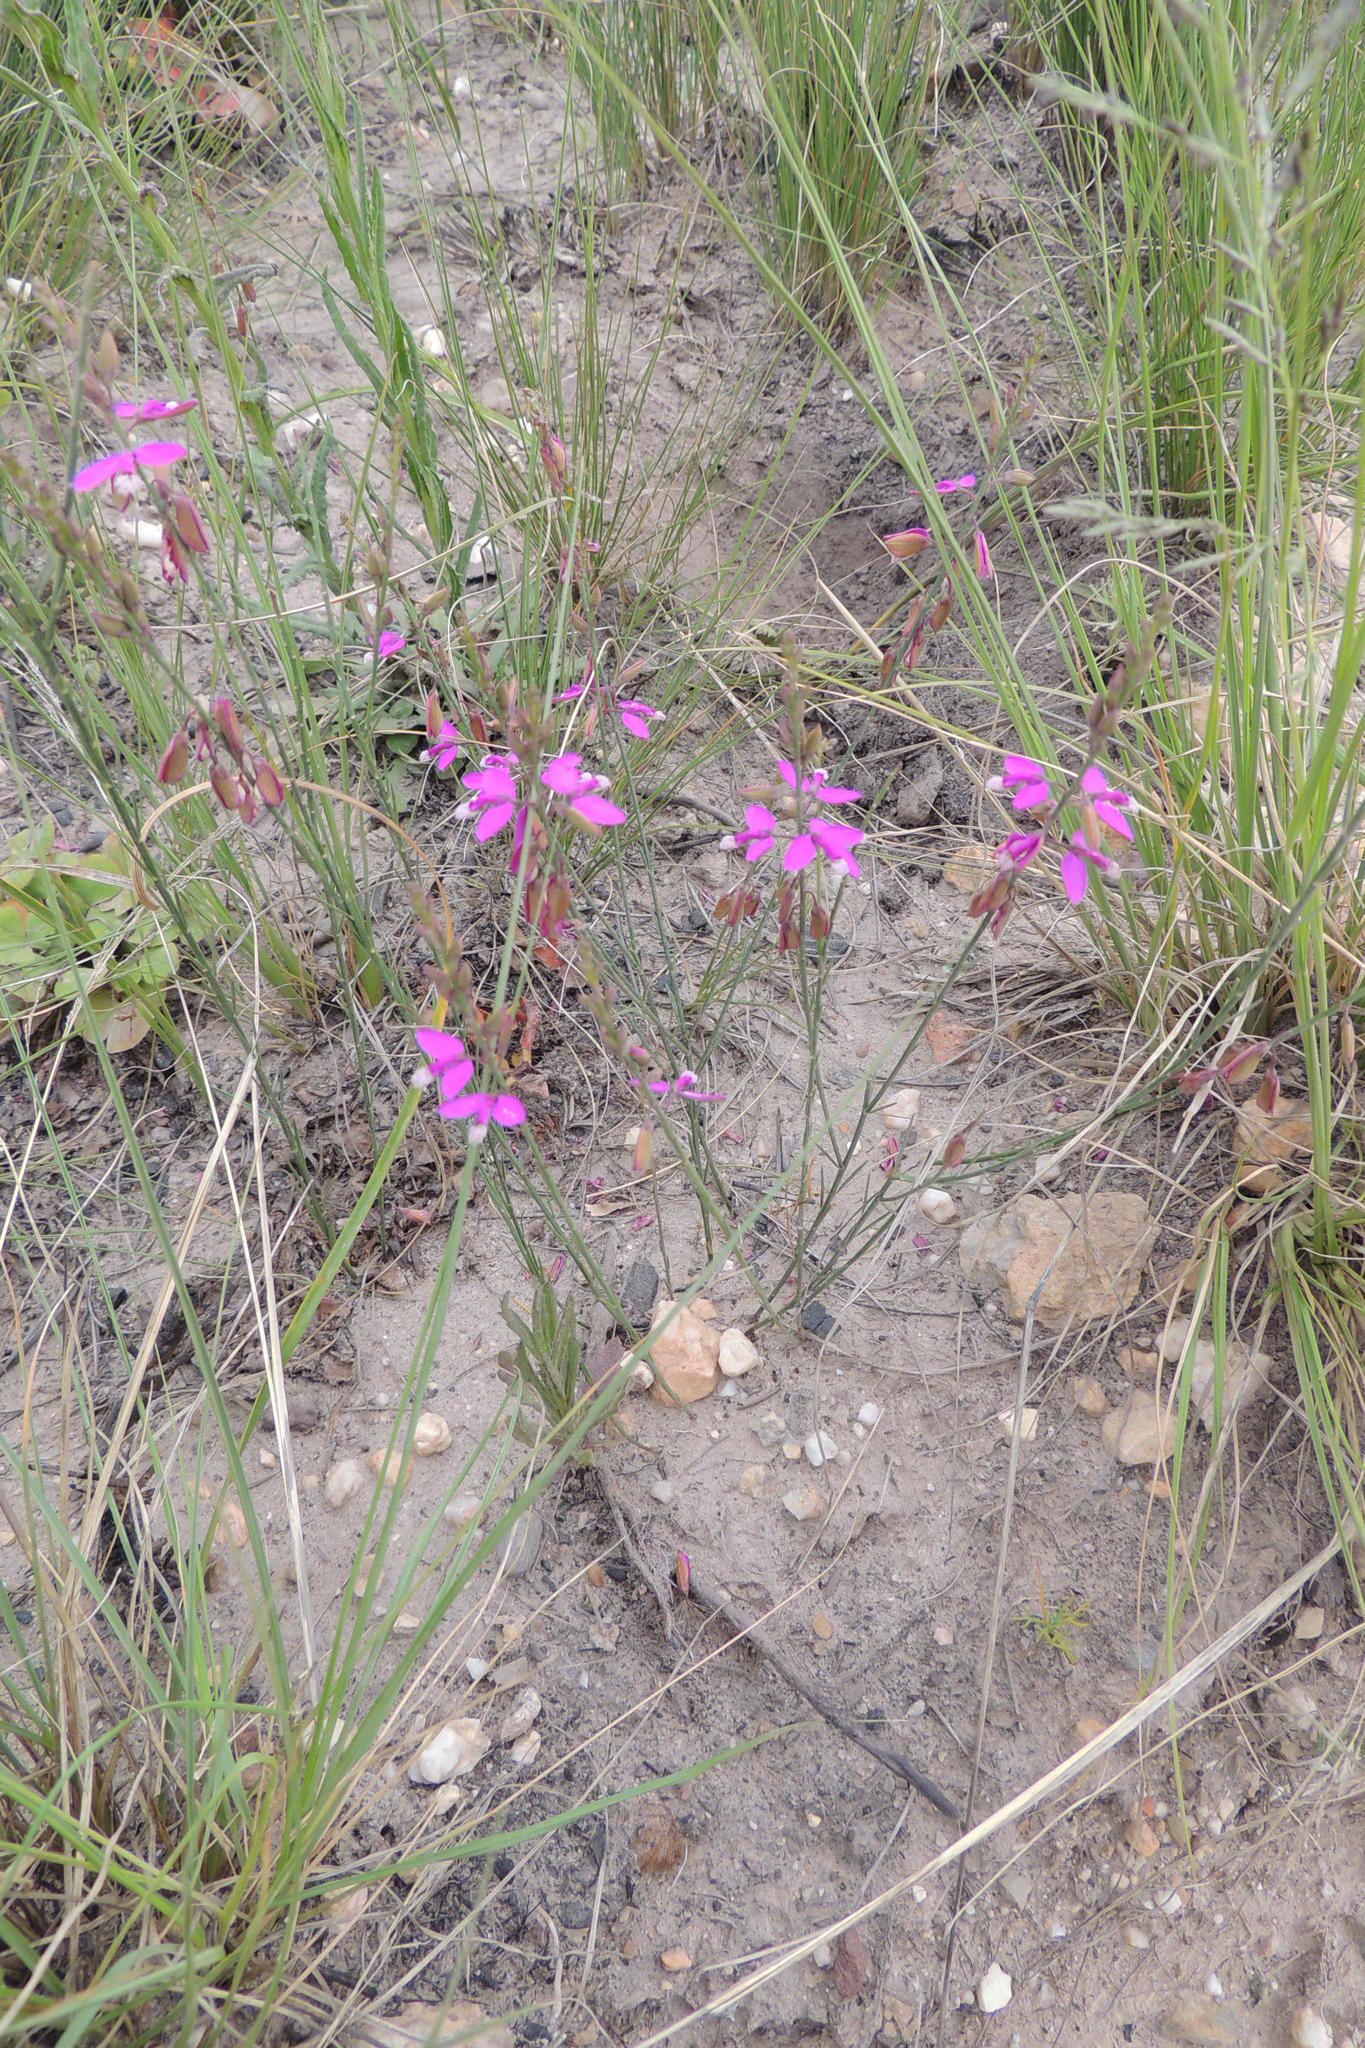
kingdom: Plantae
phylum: Tracheophyta
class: Magnoliopsida
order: Fabales
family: Polygalaceae
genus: Polygala
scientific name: Polygala garcini
